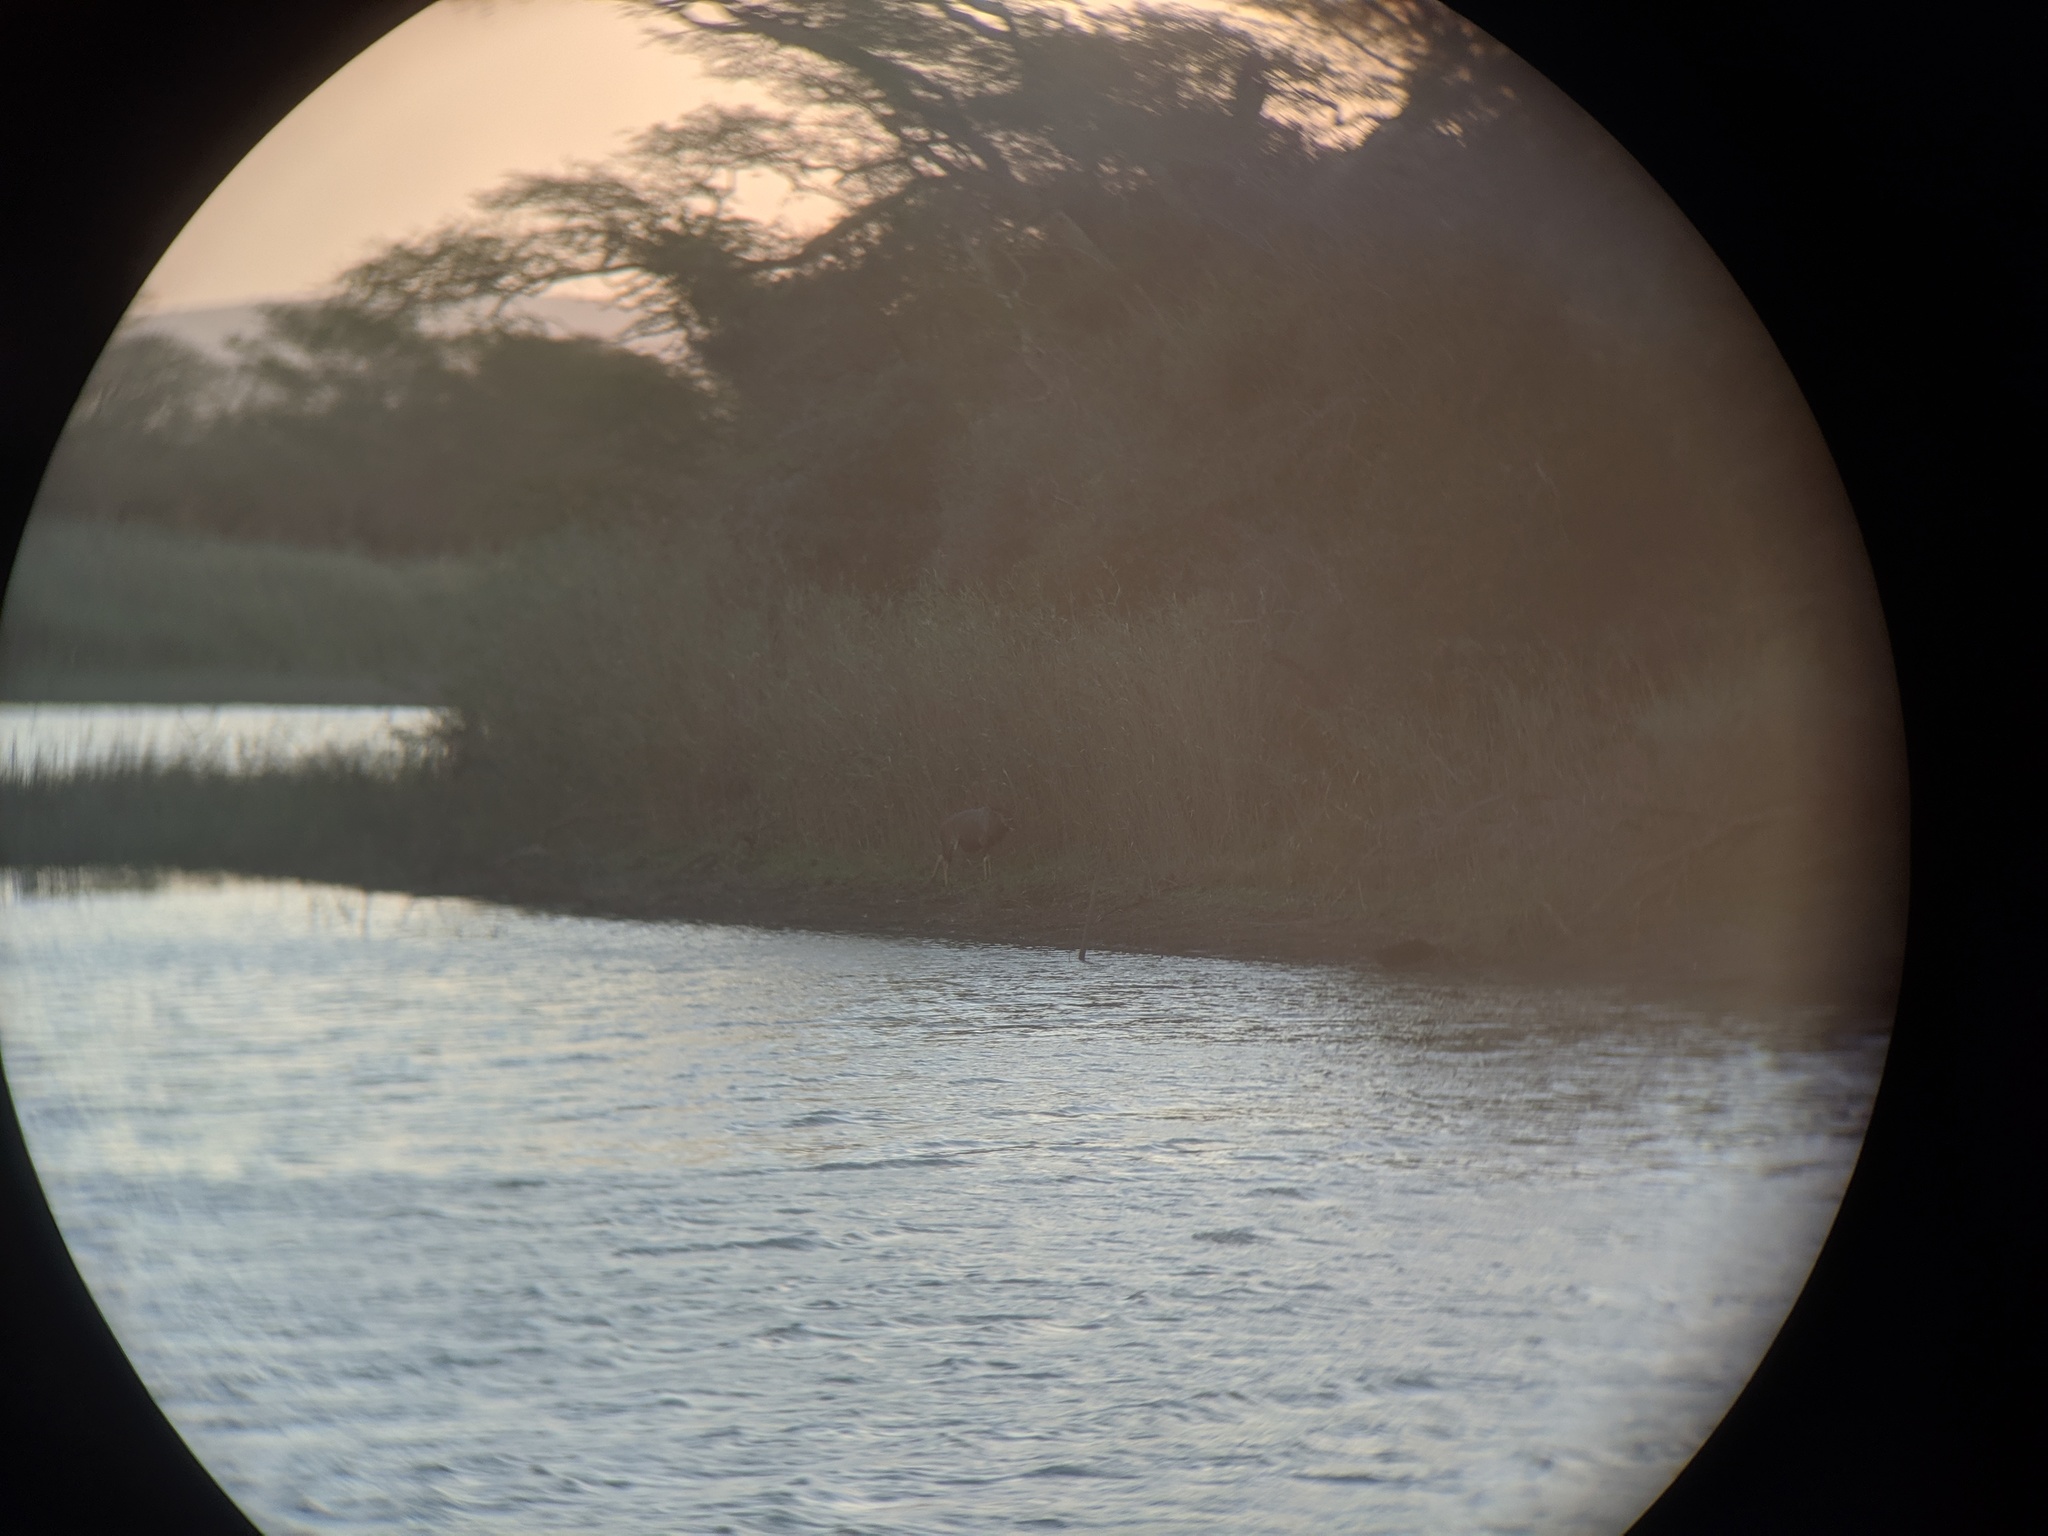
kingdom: Animalia
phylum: Chordata
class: Mammalia
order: Artiodactyla
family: Bovidae
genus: Tragelaphus
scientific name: Tragelaphus angasii
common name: Nyala
